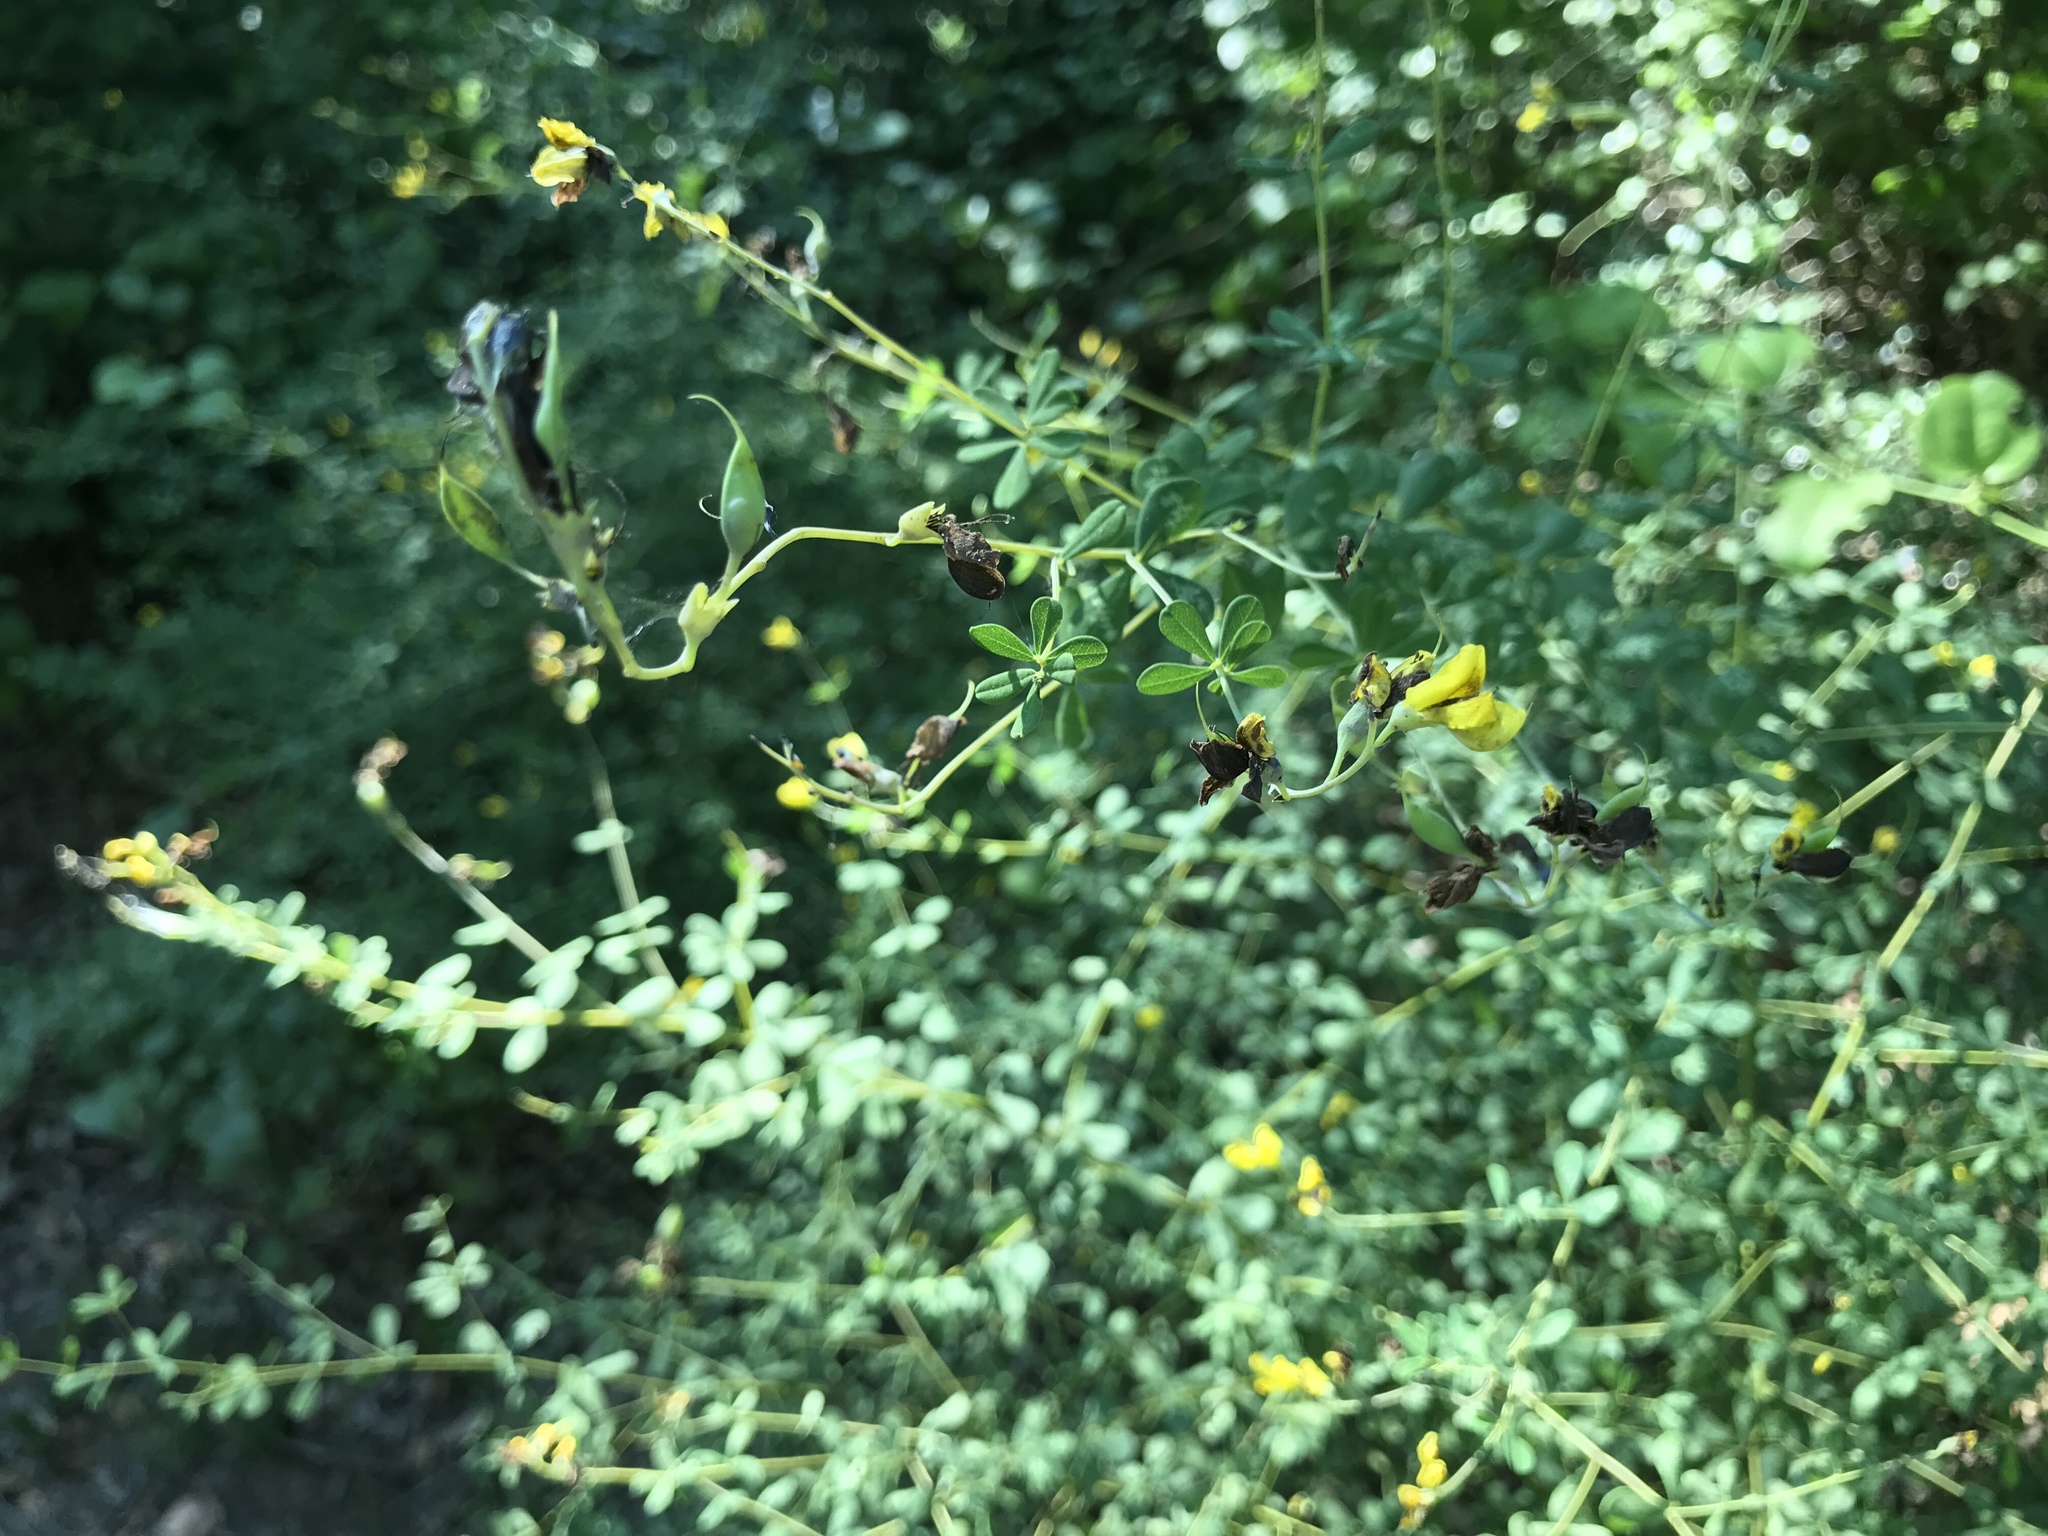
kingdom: Plantae
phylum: Tracheophyta
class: Magnoliopsida
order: Fabales
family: Fabaceae
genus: Baptisia
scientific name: Baptisia tinctoria
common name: Wild indigo
